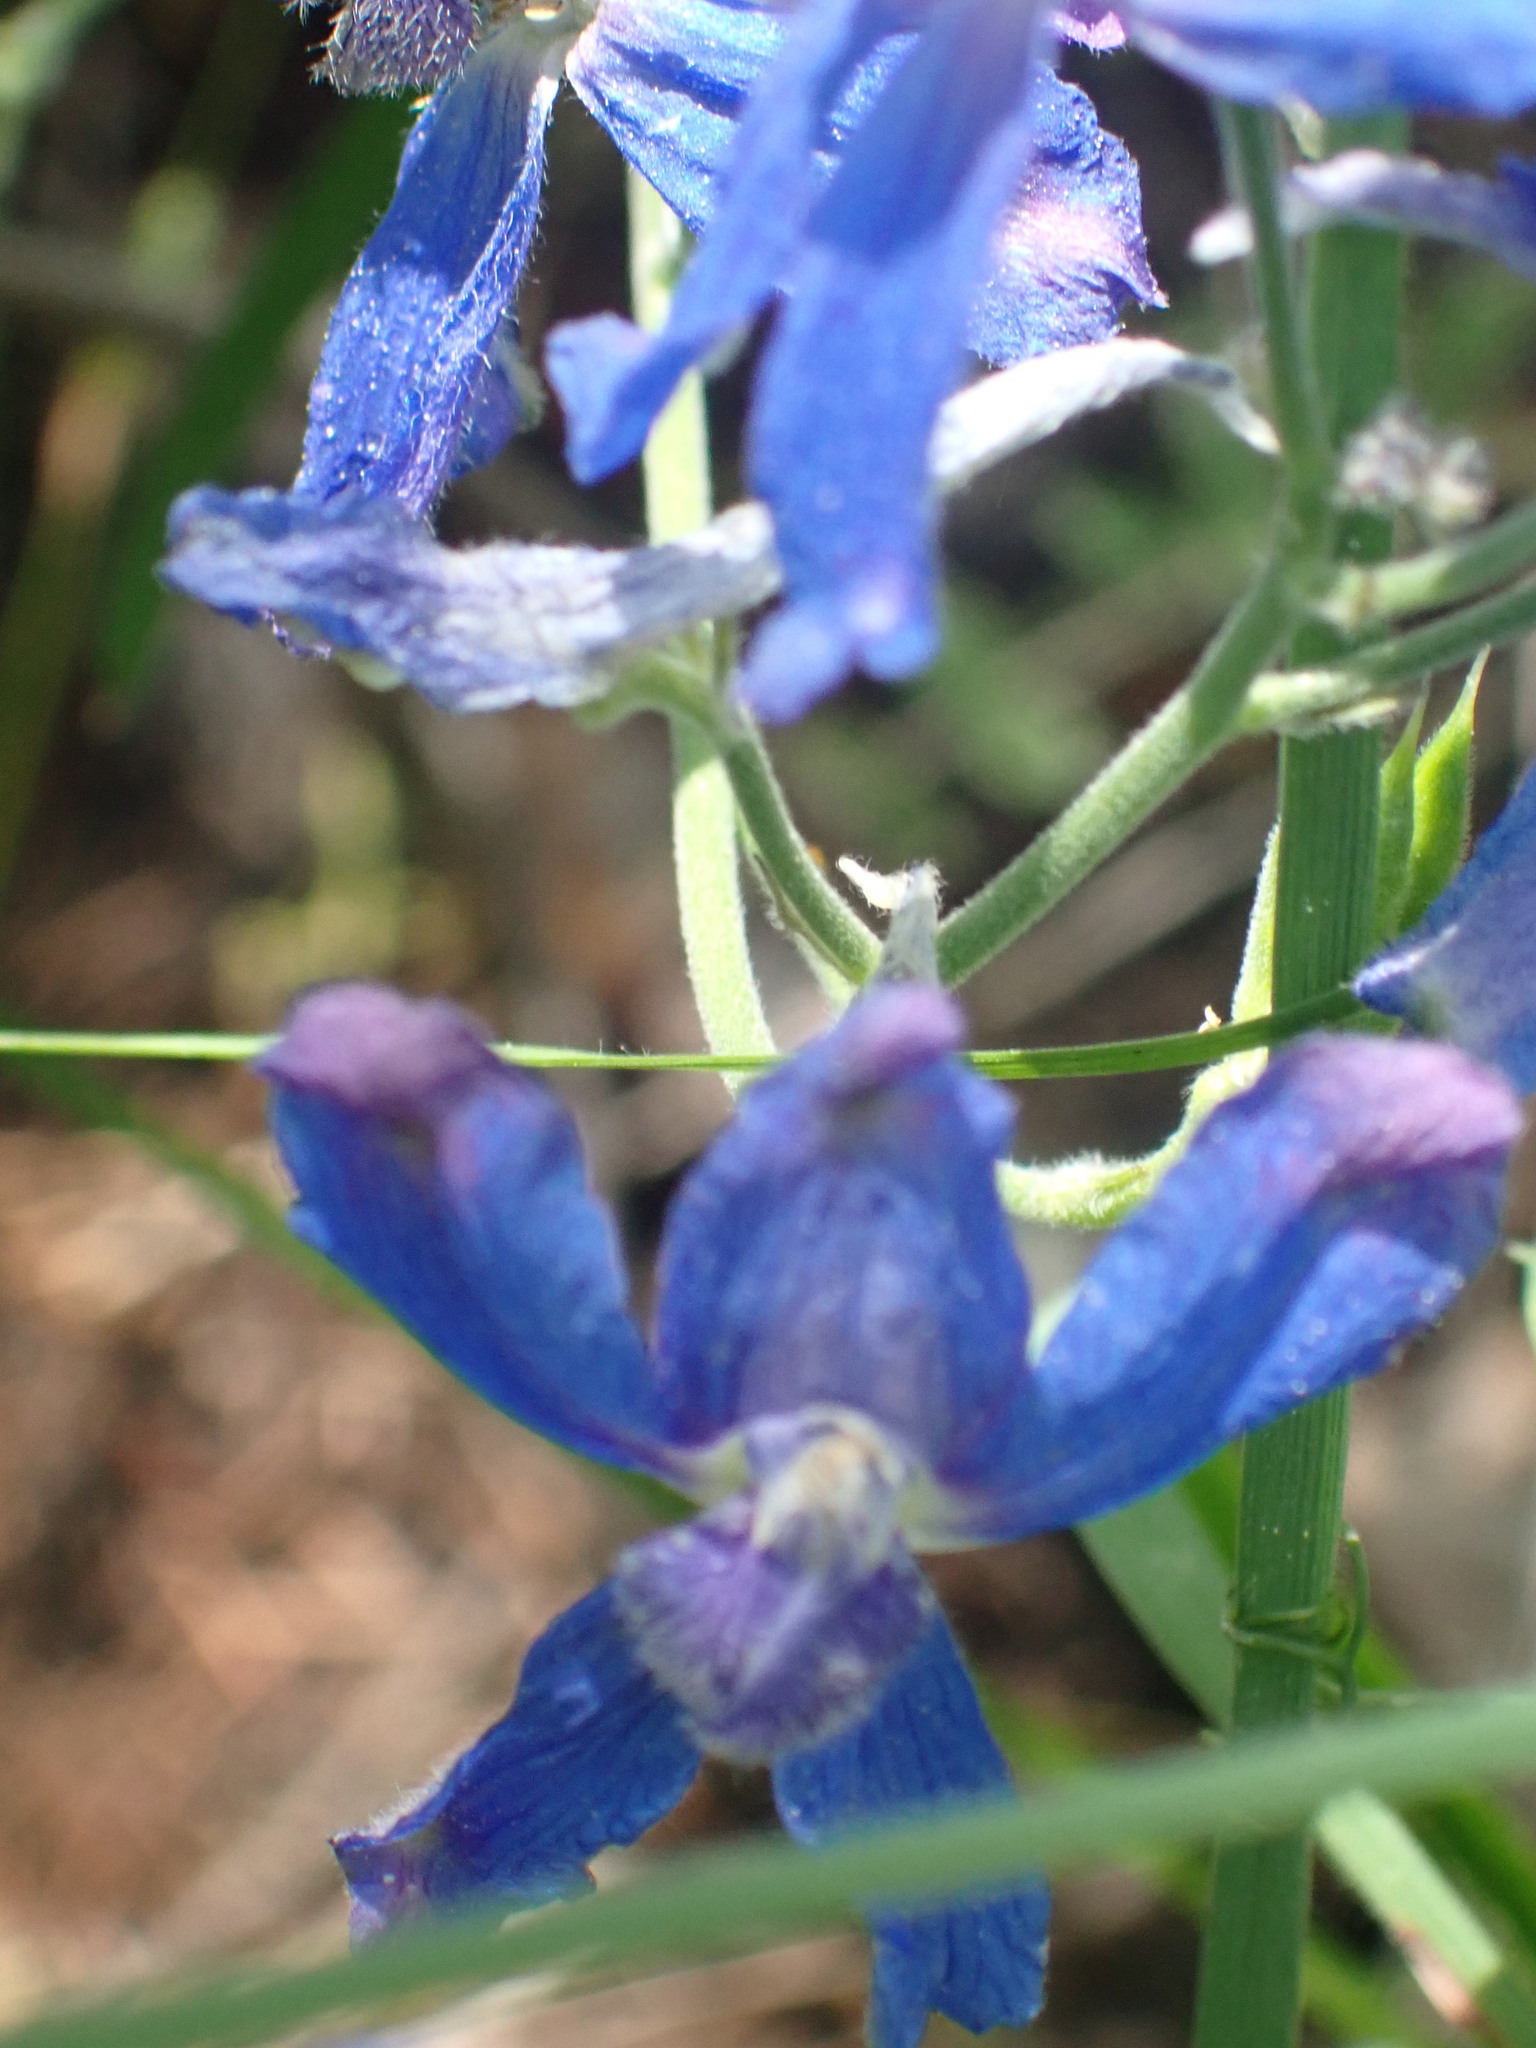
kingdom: Plantae
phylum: Tracheophyta
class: Magnoliopsida
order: Ranunculales
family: Ranunculaceae
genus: Delphinium
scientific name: Delphinium nuttallianum
